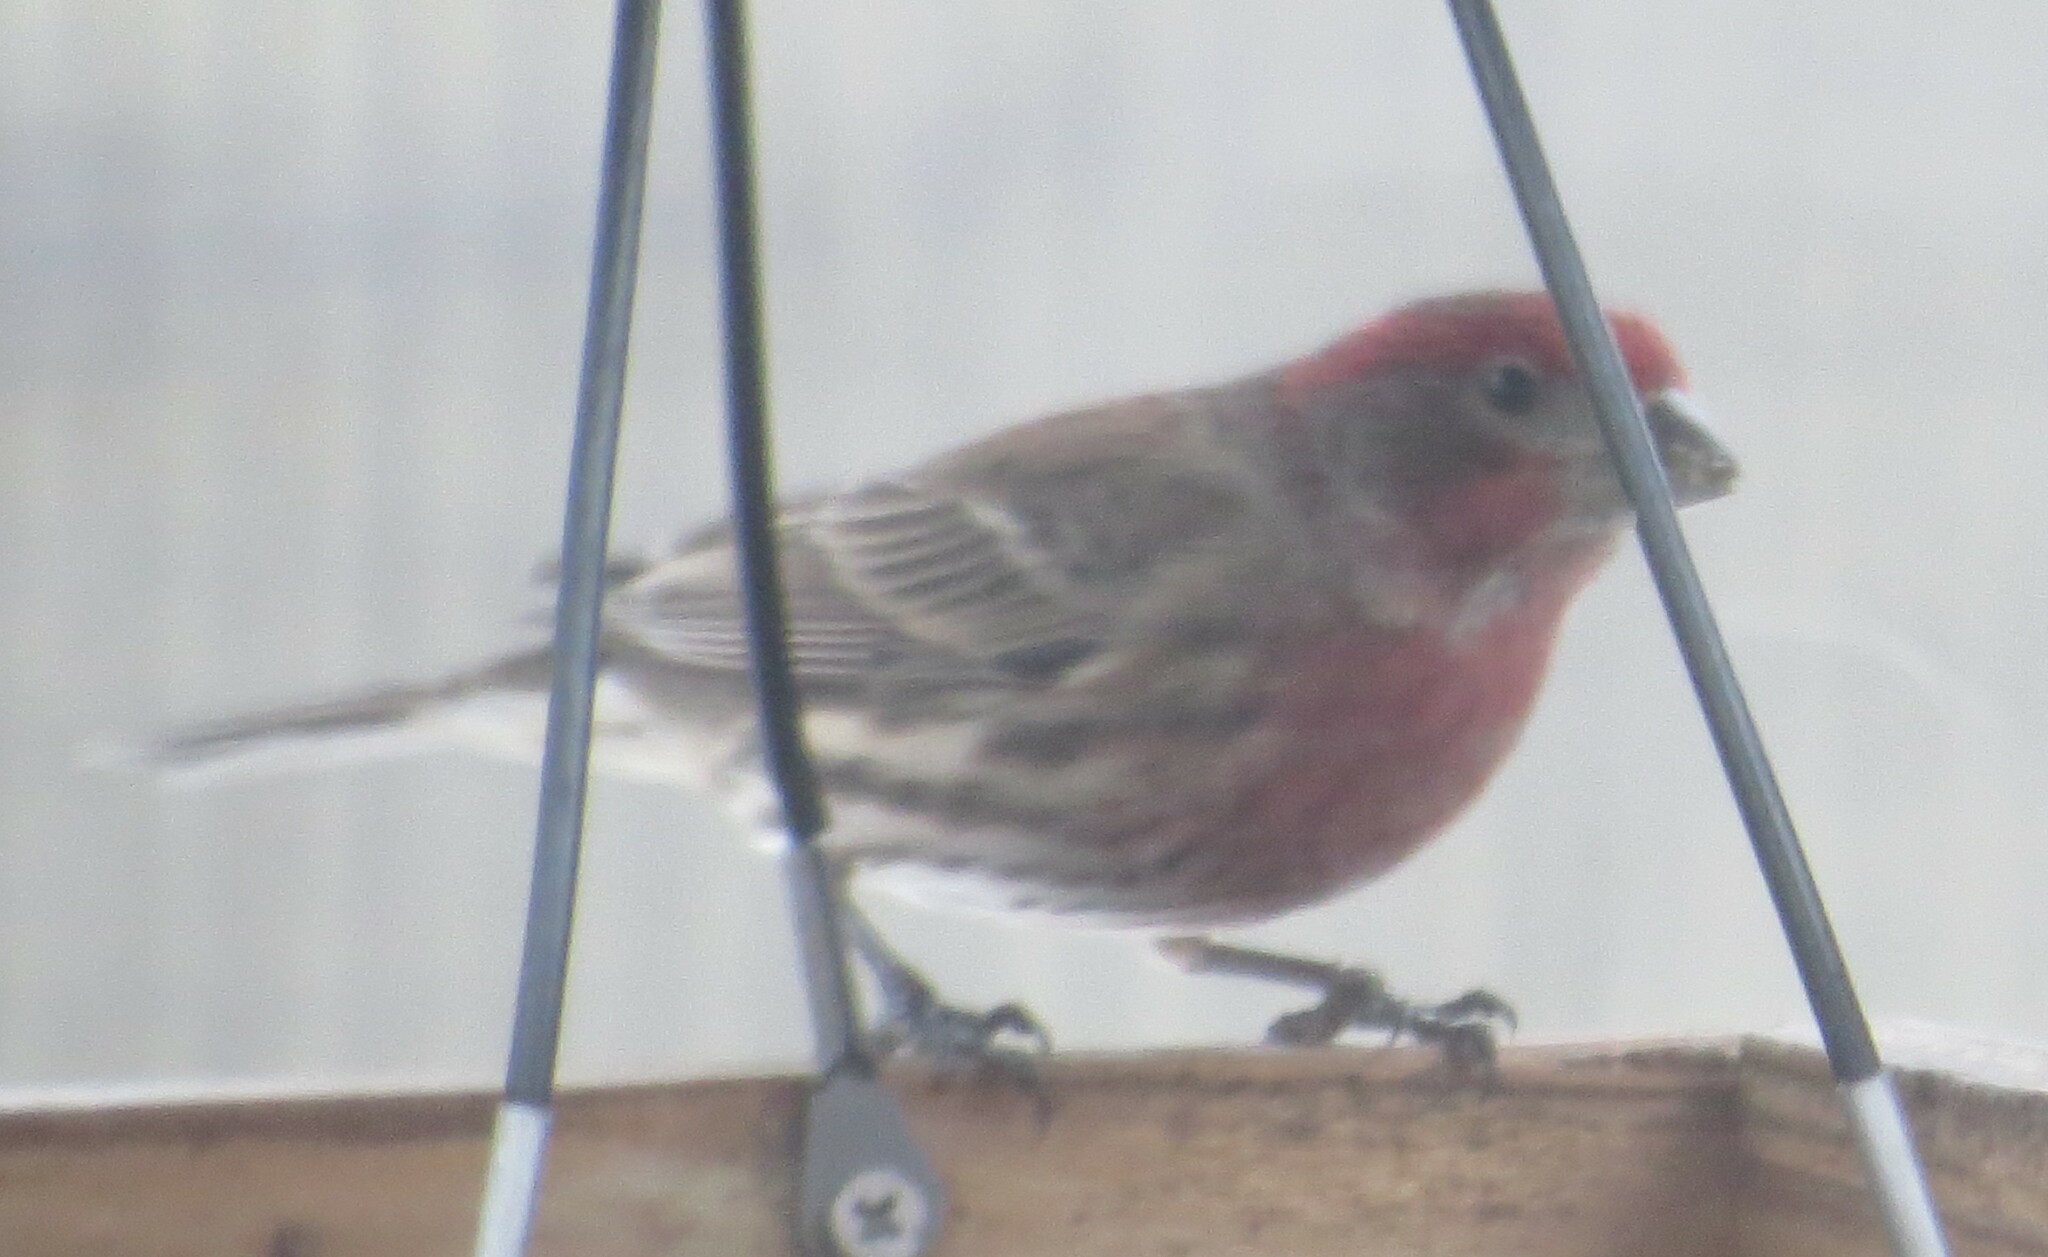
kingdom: Animalia
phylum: Chordata
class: Aves
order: Passeriformes
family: Fringillidae
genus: Haemorhous
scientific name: Haemorhous mexicanus
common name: House finch
